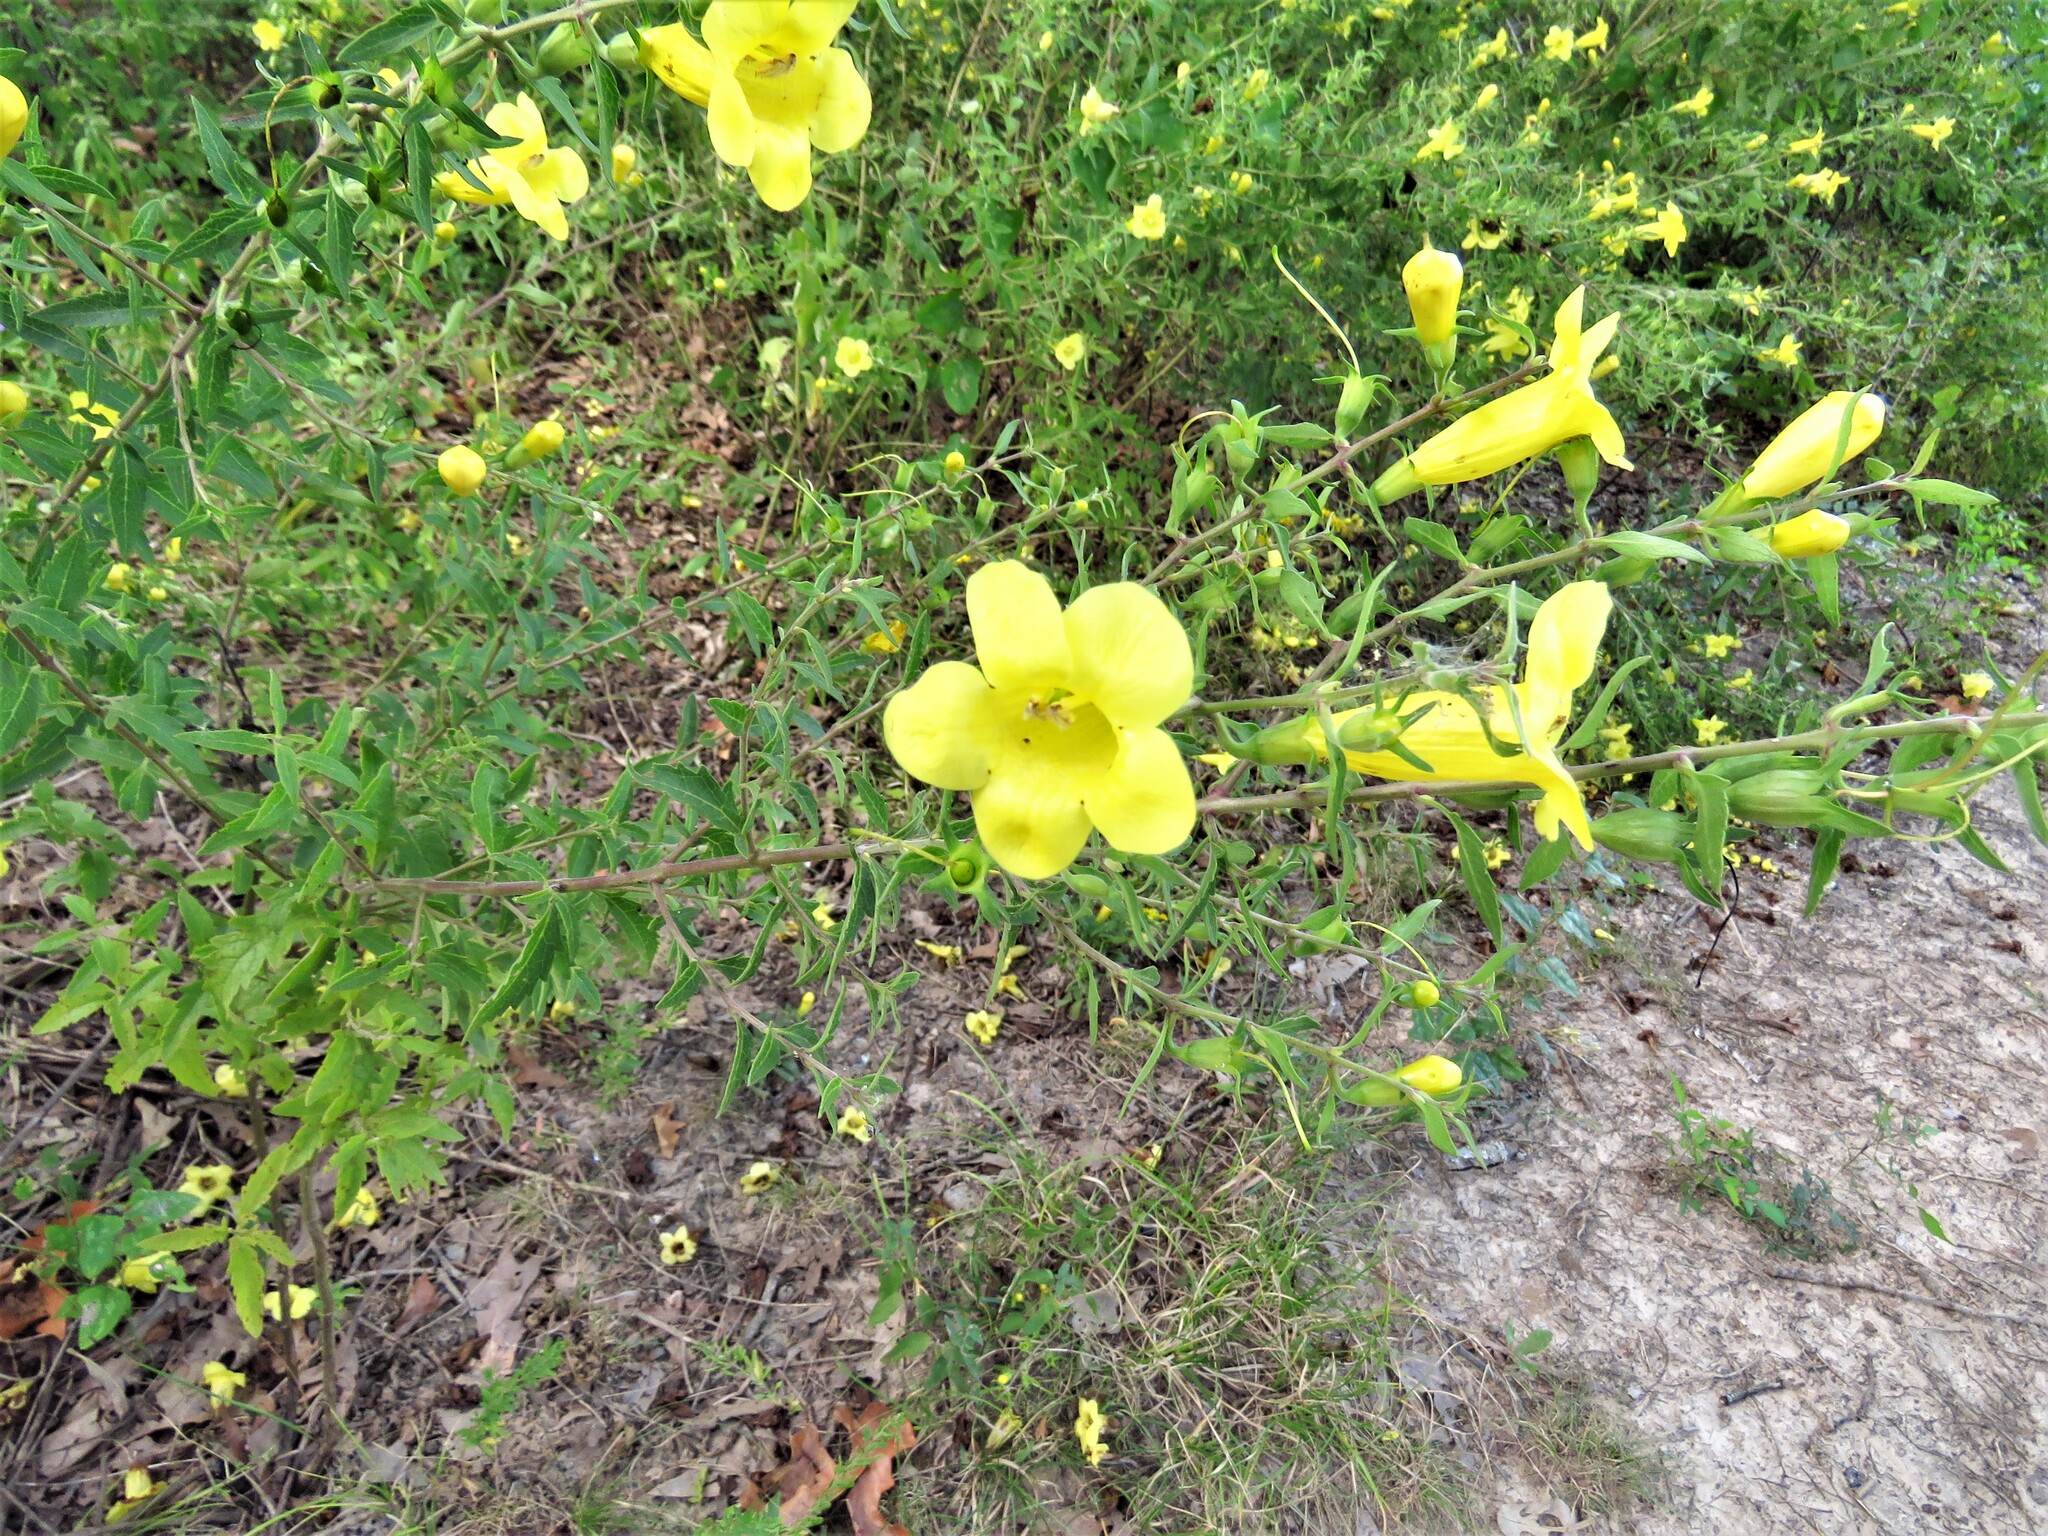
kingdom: Plantae
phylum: Tracheophyta
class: Magnoliopsida
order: Lamiales
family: Orobanchaceae
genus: Aureolaria
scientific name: Aureolaria grandiflora
